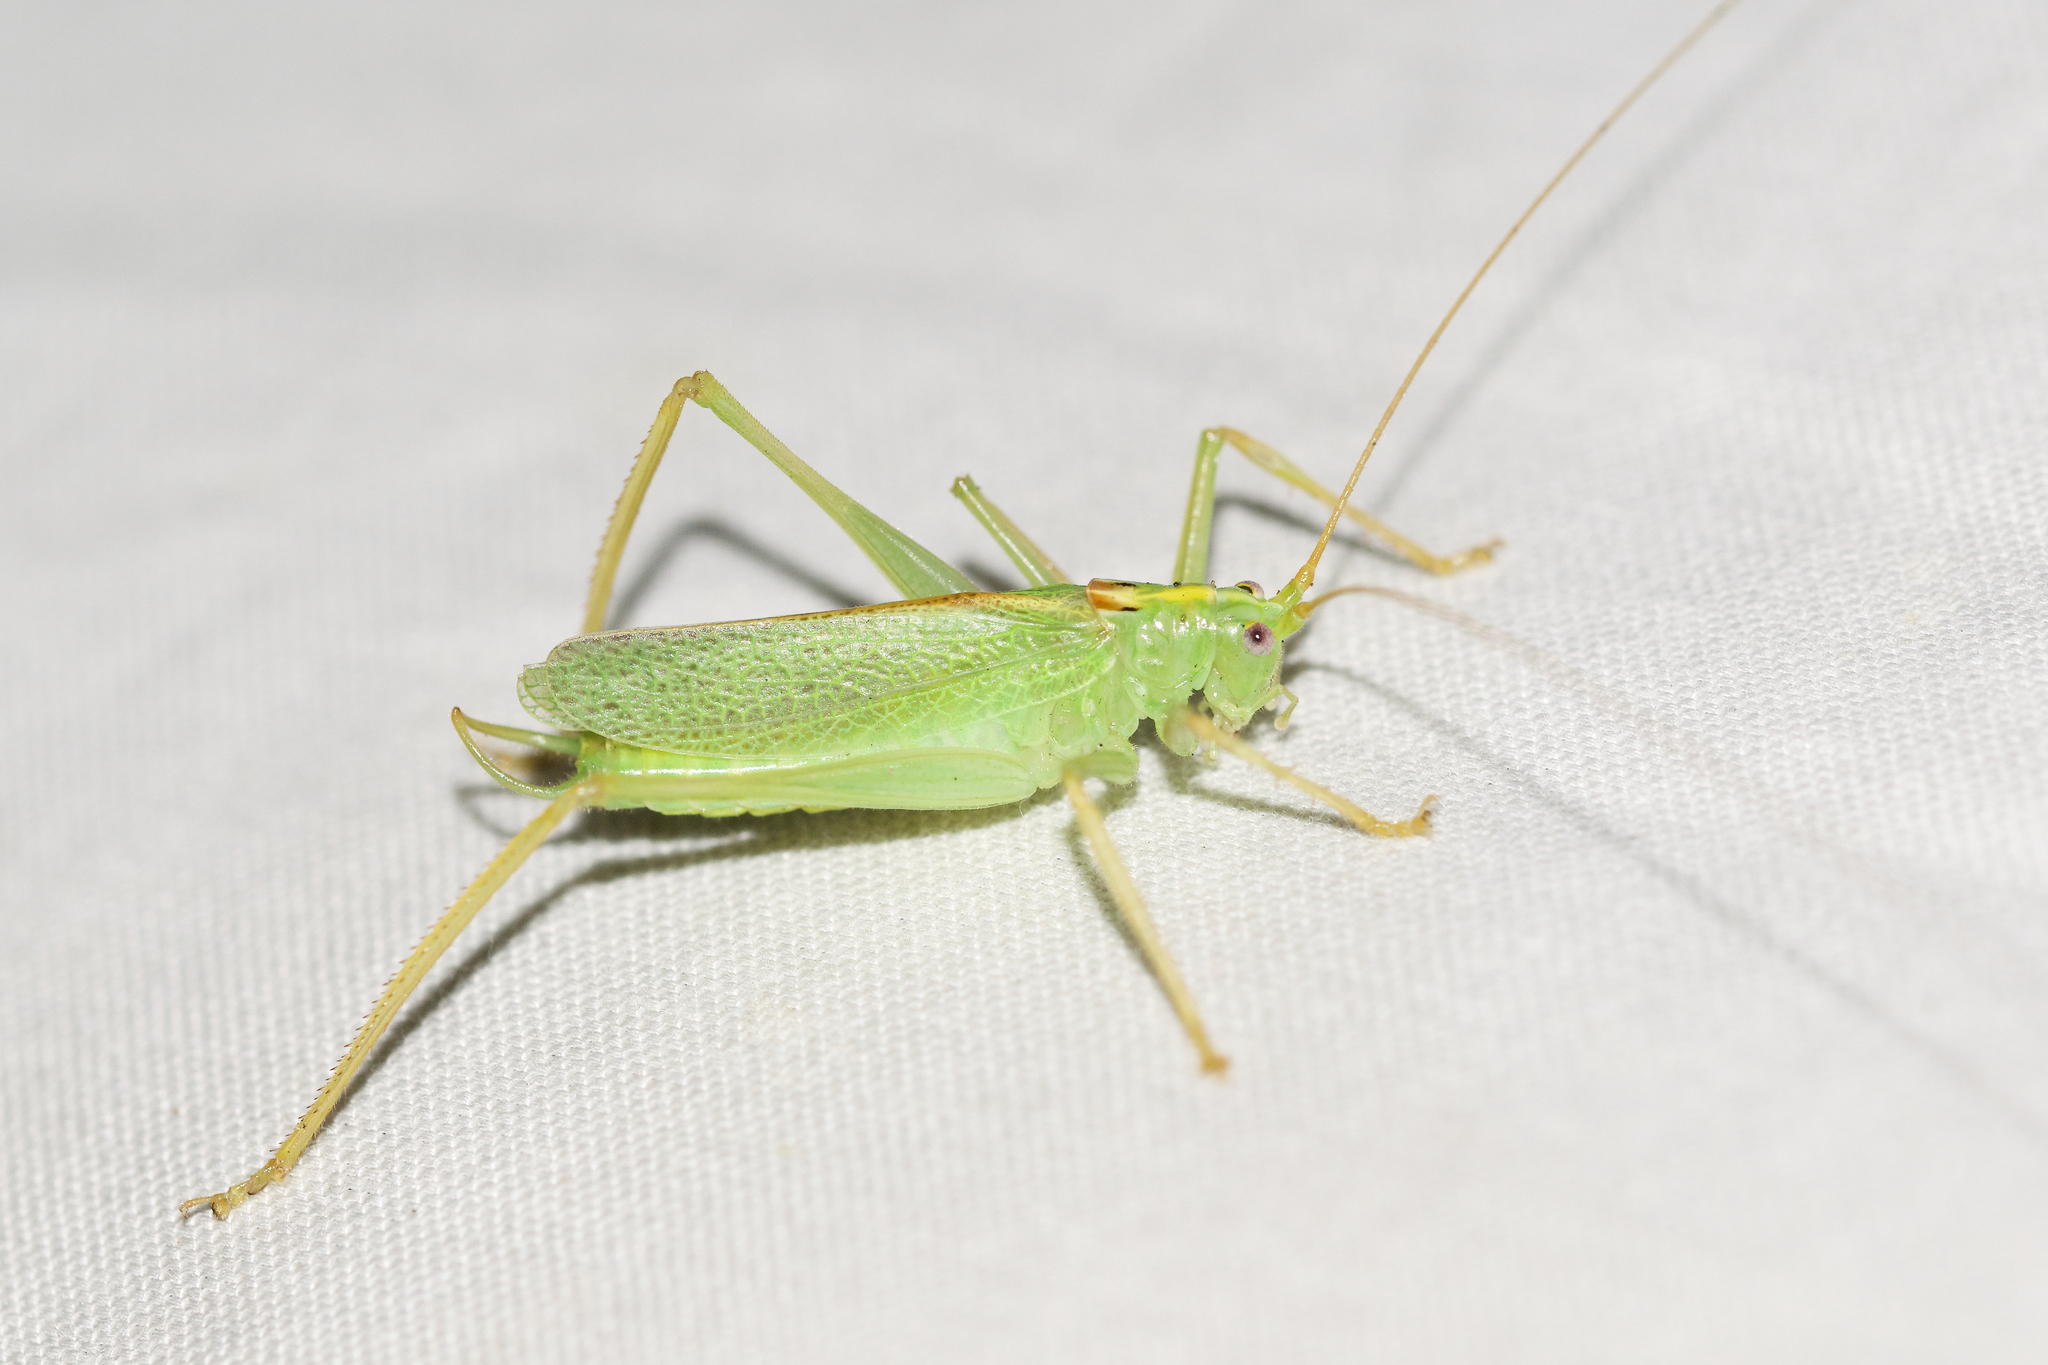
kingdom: Animalia
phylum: Arthropoda
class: Insecta
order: Orthoptera
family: Tettigoniidae
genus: Meconema
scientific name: Meconema thalassinum
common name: Oak bush-cricket
